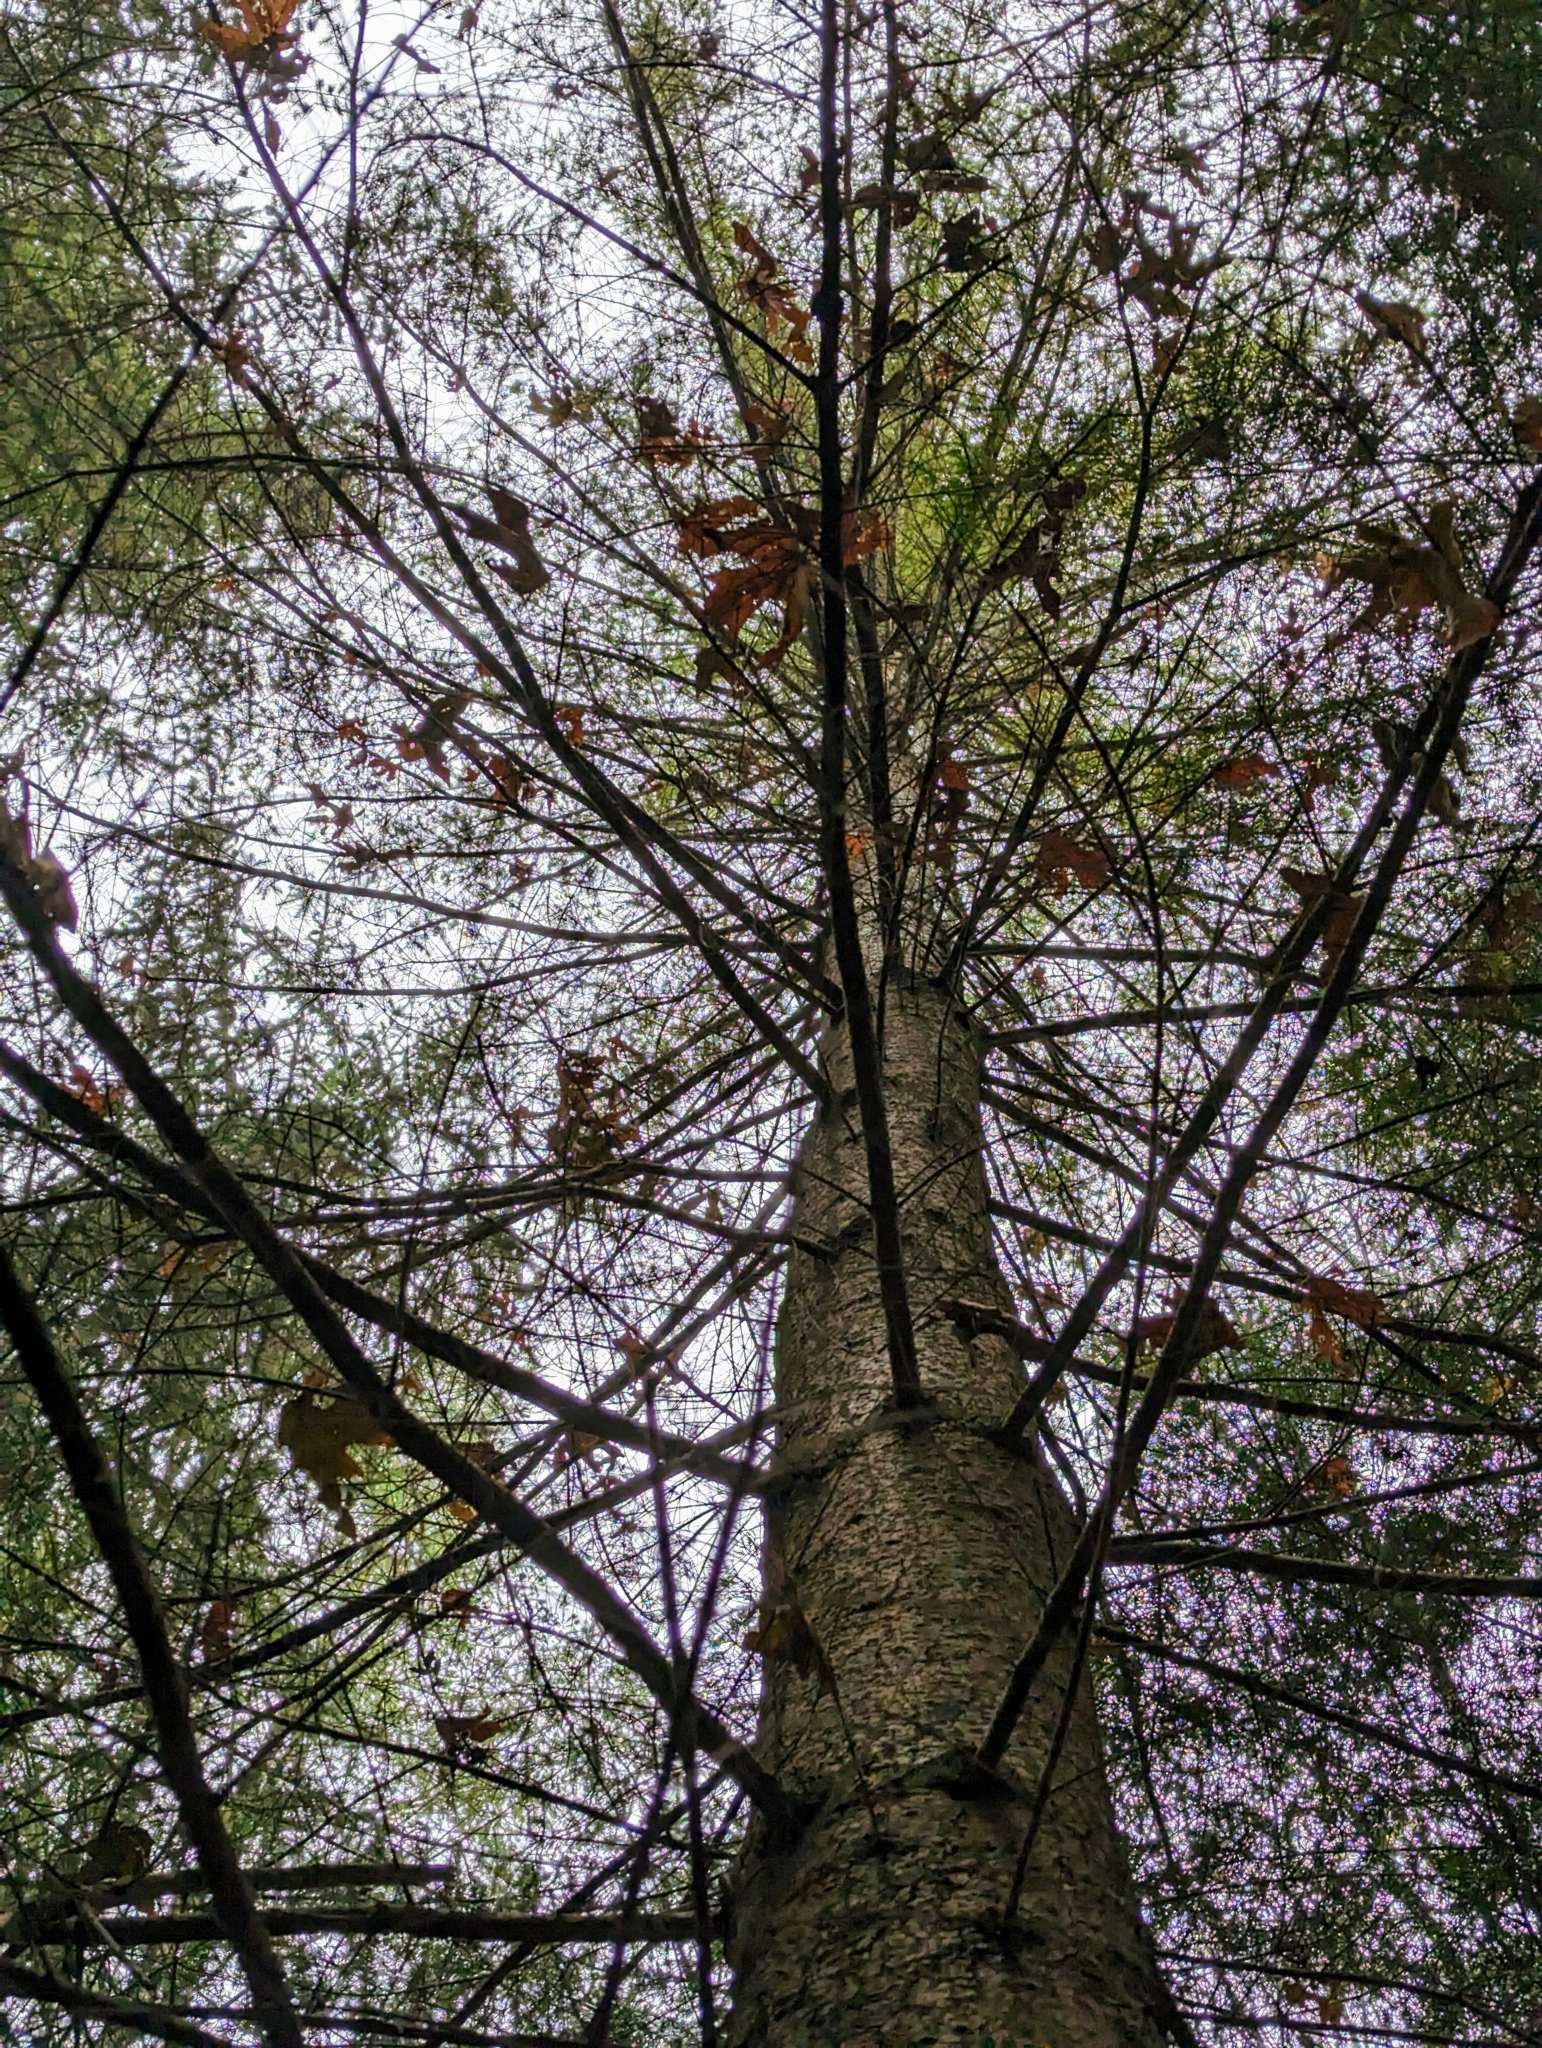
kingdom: Plantae
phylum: Tracheophyta
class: Pinopsida
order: Pinales
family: Pinaceae
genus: Pseudotsuga
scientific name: Pseudotsuga menziesii
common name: Douglas fir
